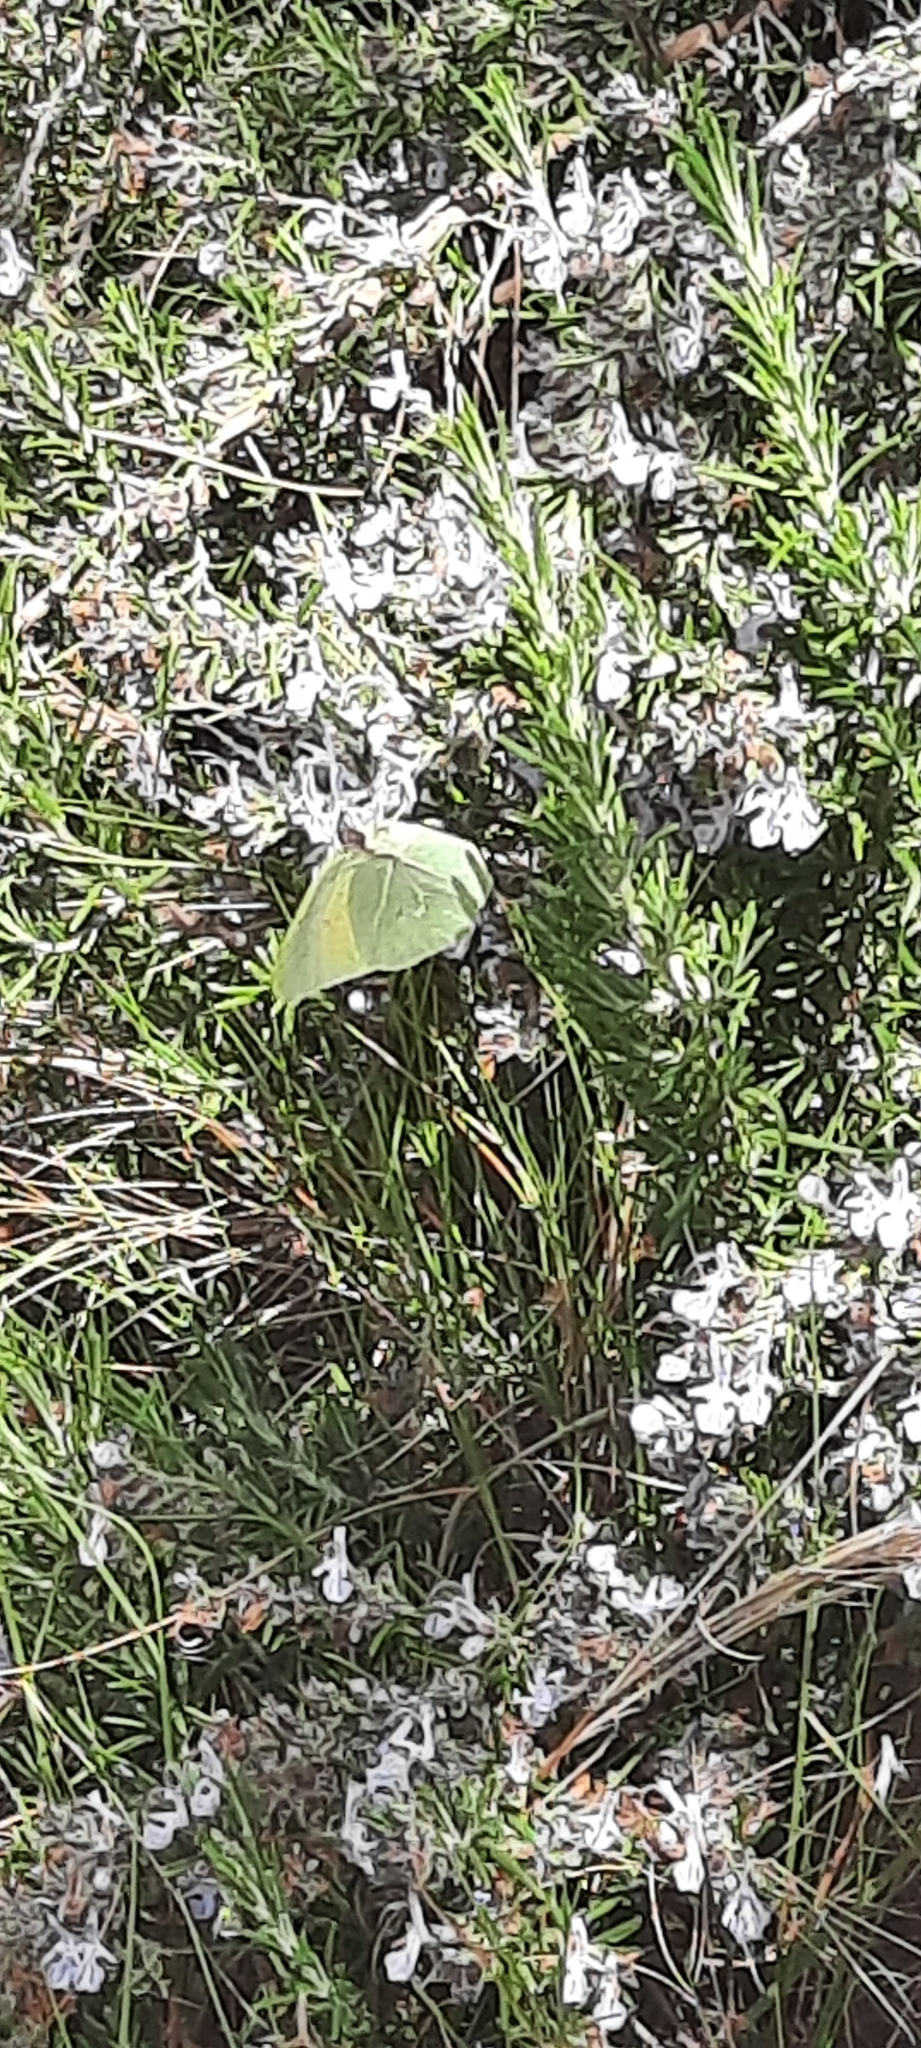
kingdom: Animalia
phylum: Arthropoda
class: Insecta
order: Lepidoptera
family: Pieridae
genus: Gonepteryx
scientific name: Gonepteryx cleopatra
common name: Cleopatra
